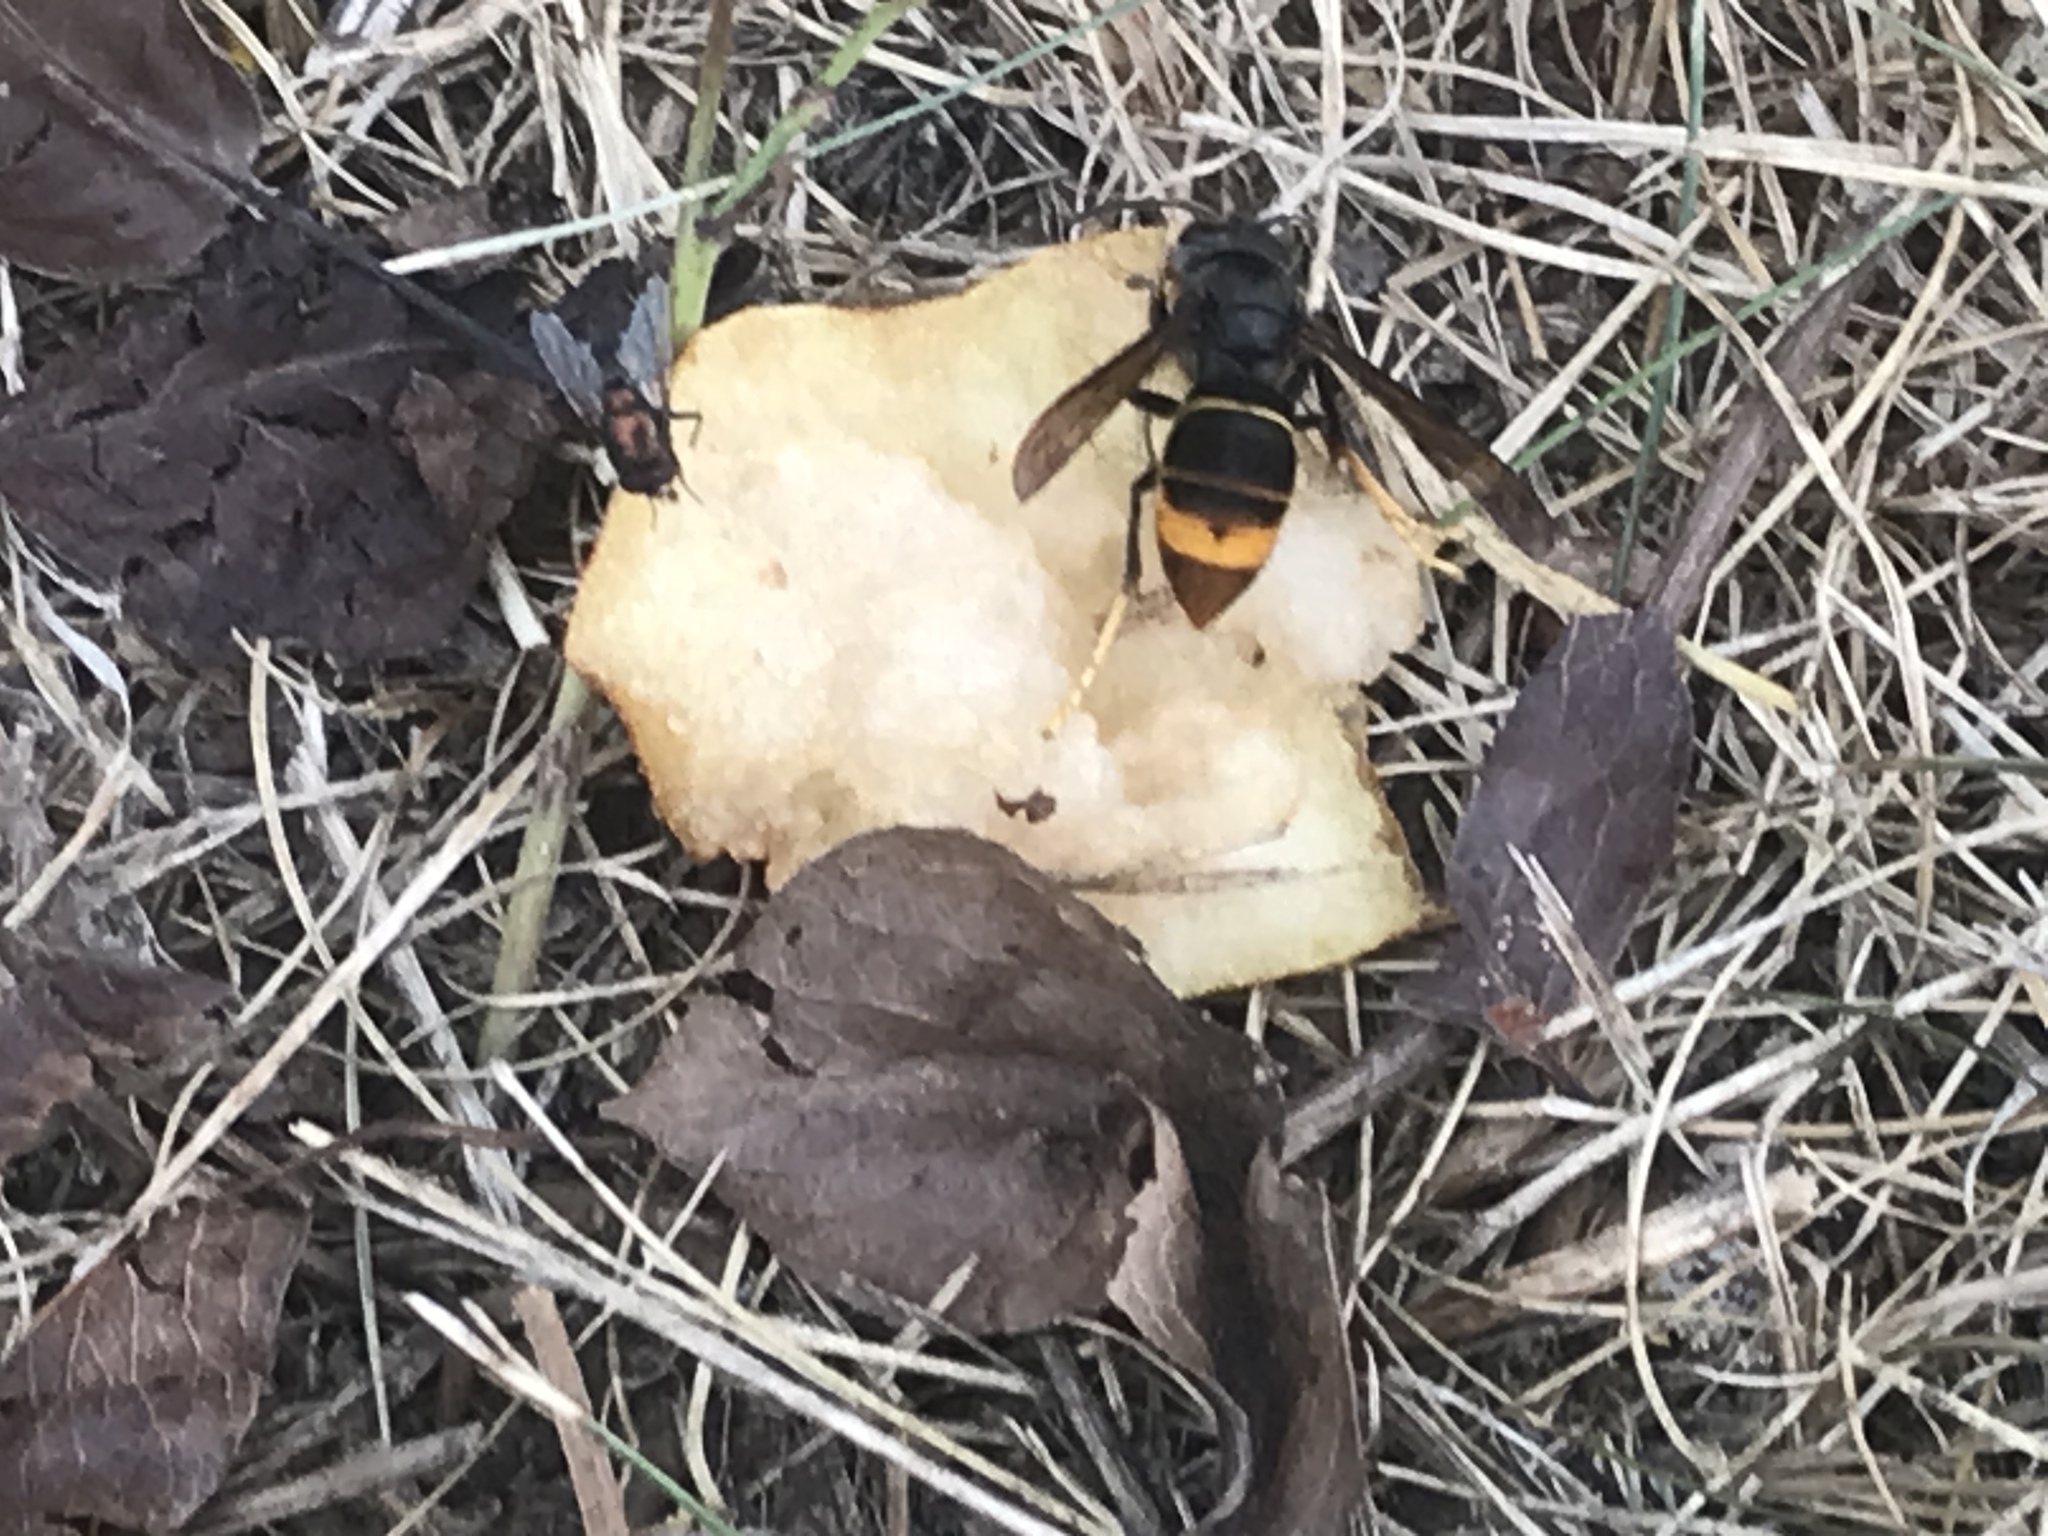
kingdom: Animalia
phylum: Arthropoda
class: Insecta
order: Hymenoptera
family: Vespidae
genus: Vespa
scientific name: Vespa velutina
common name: Asian hornet
